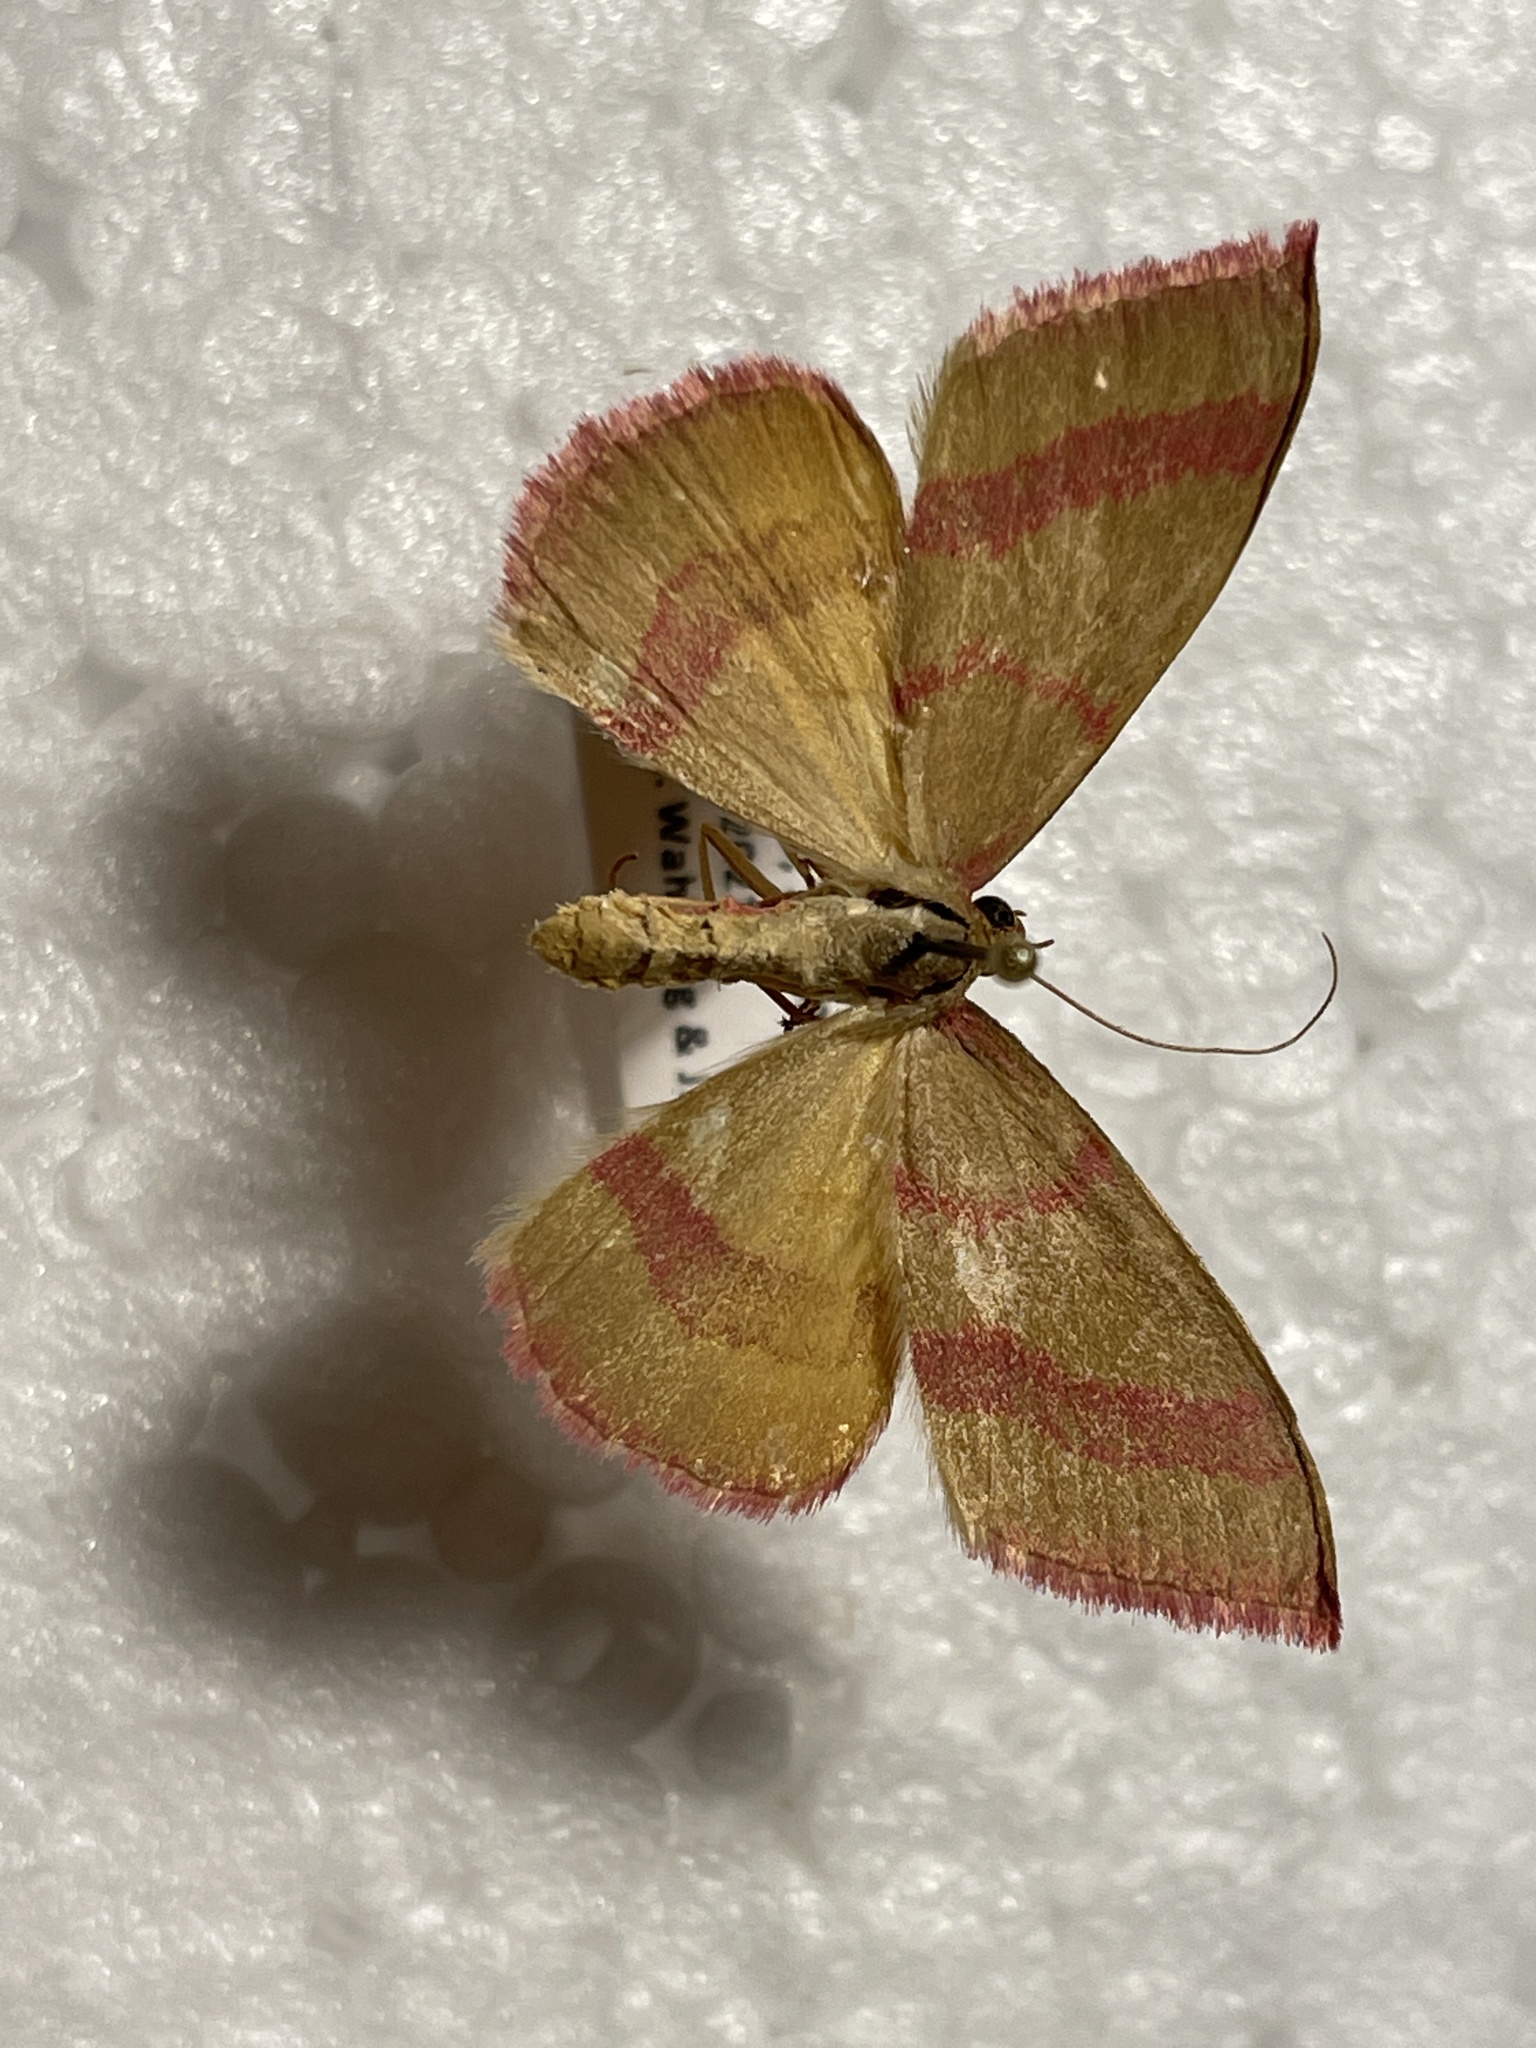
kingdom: Animalia
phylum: Arthropoda
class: Insecta
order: Lepidoptera
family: Geometridae
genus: Rhodostrophia
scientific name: Rhodostrophia calabra
